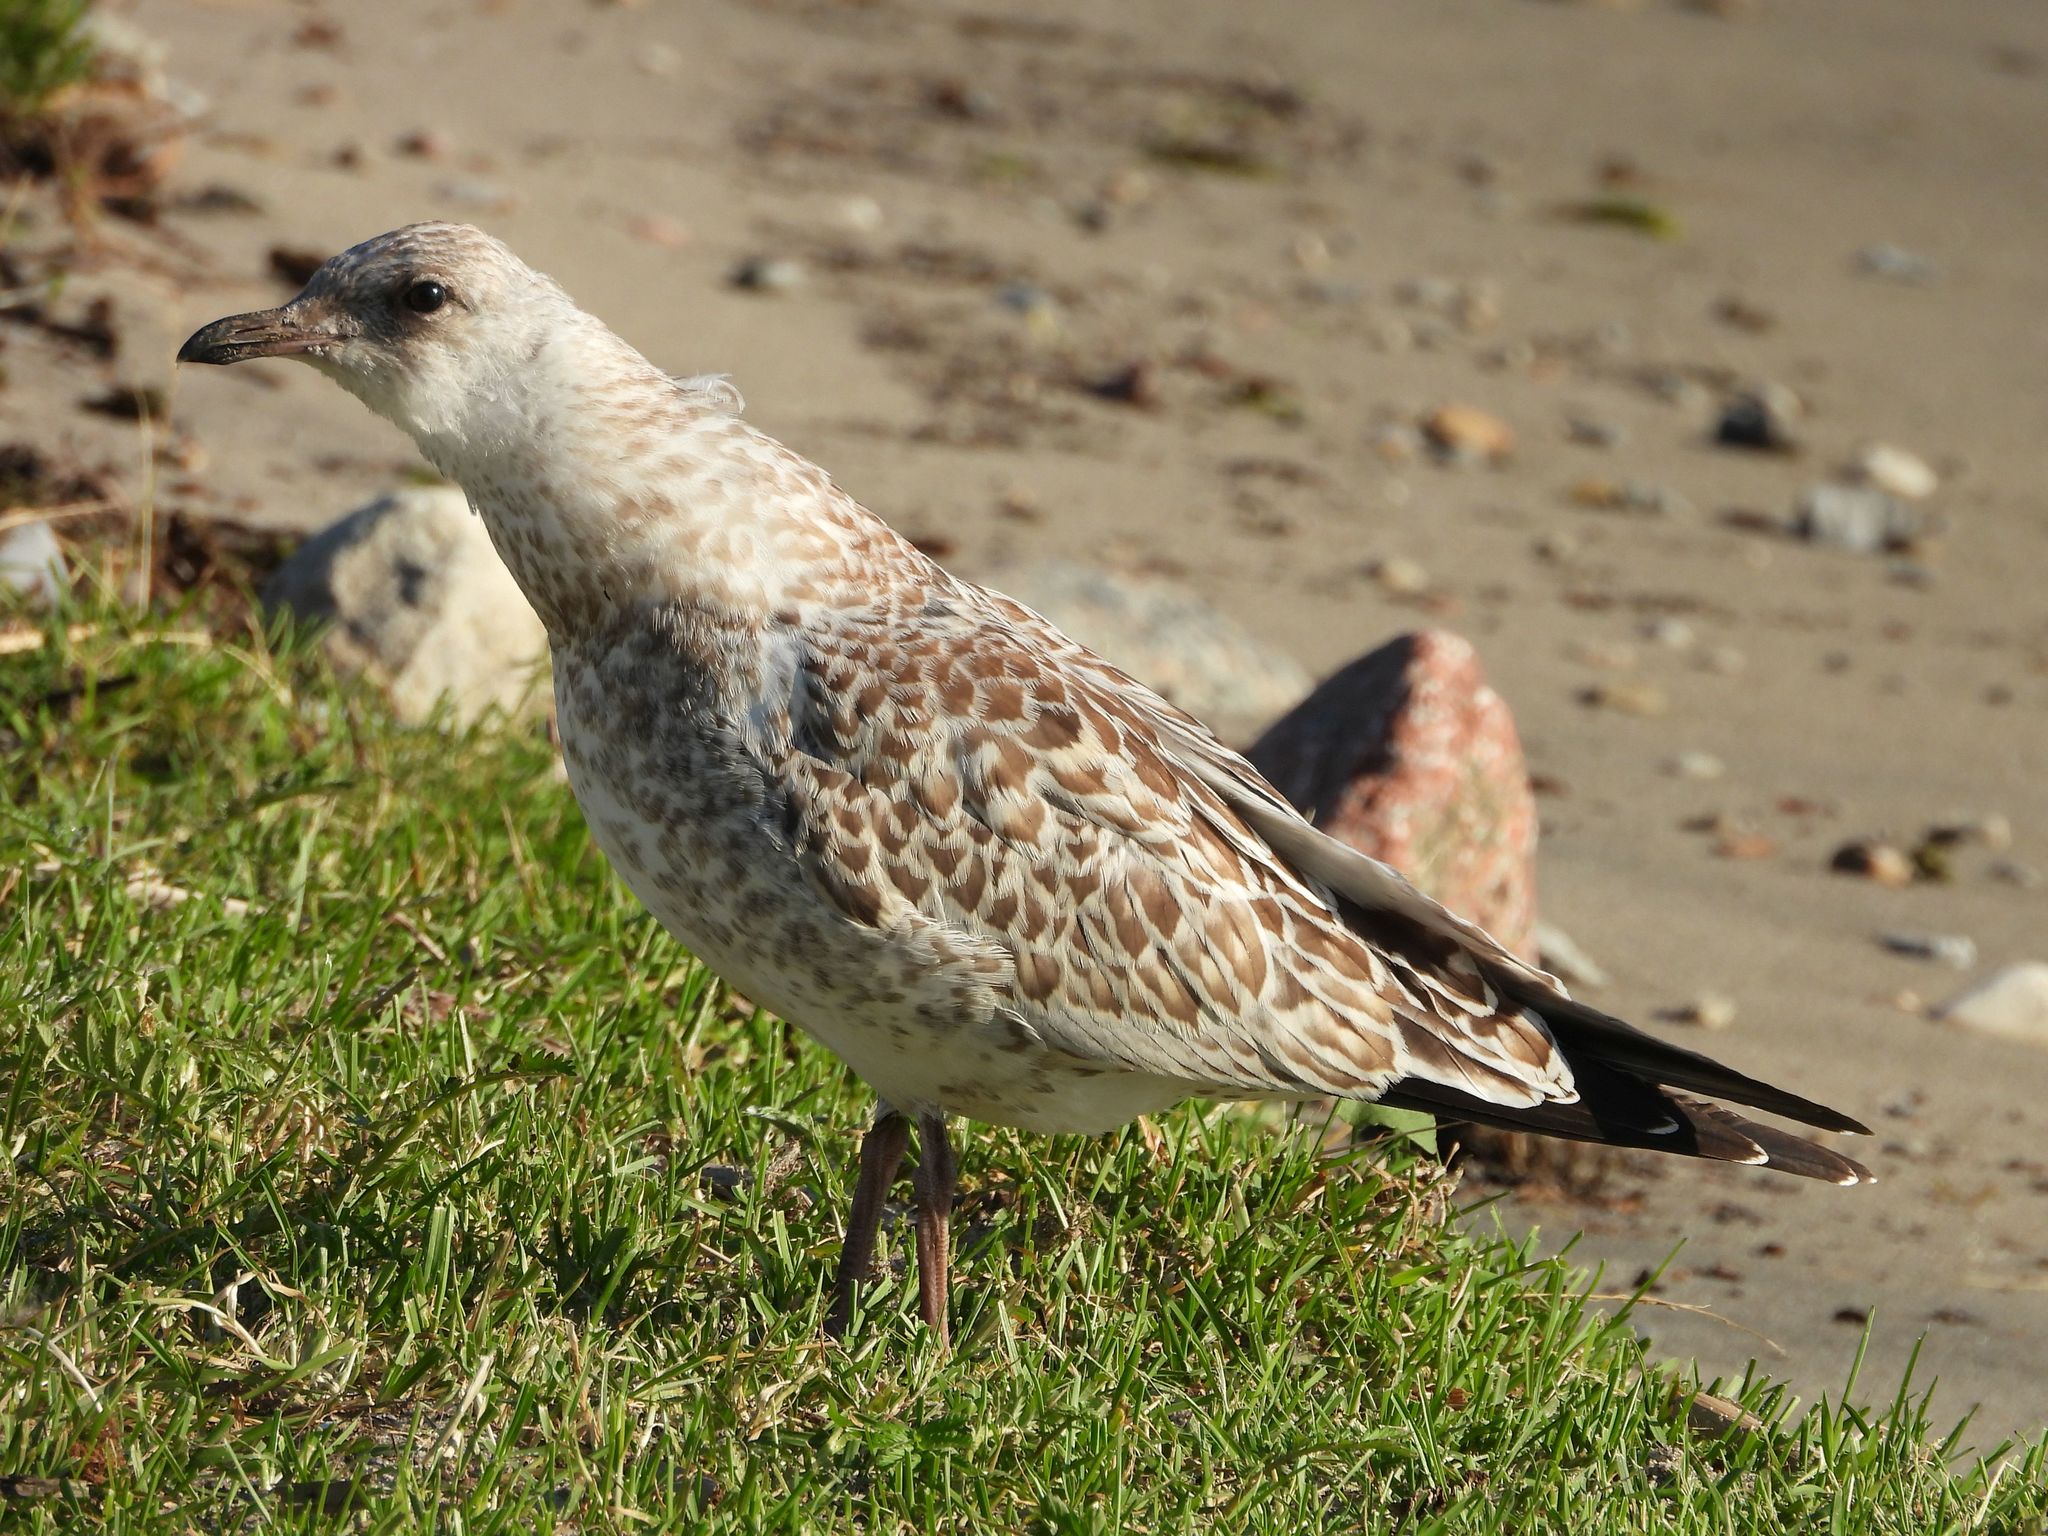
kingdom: Animalia
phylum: Chordata
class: Aves
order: Charadriiformes
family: Laridae
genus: Larus
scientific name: Larus delawarensis
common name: Ring-billed gull
